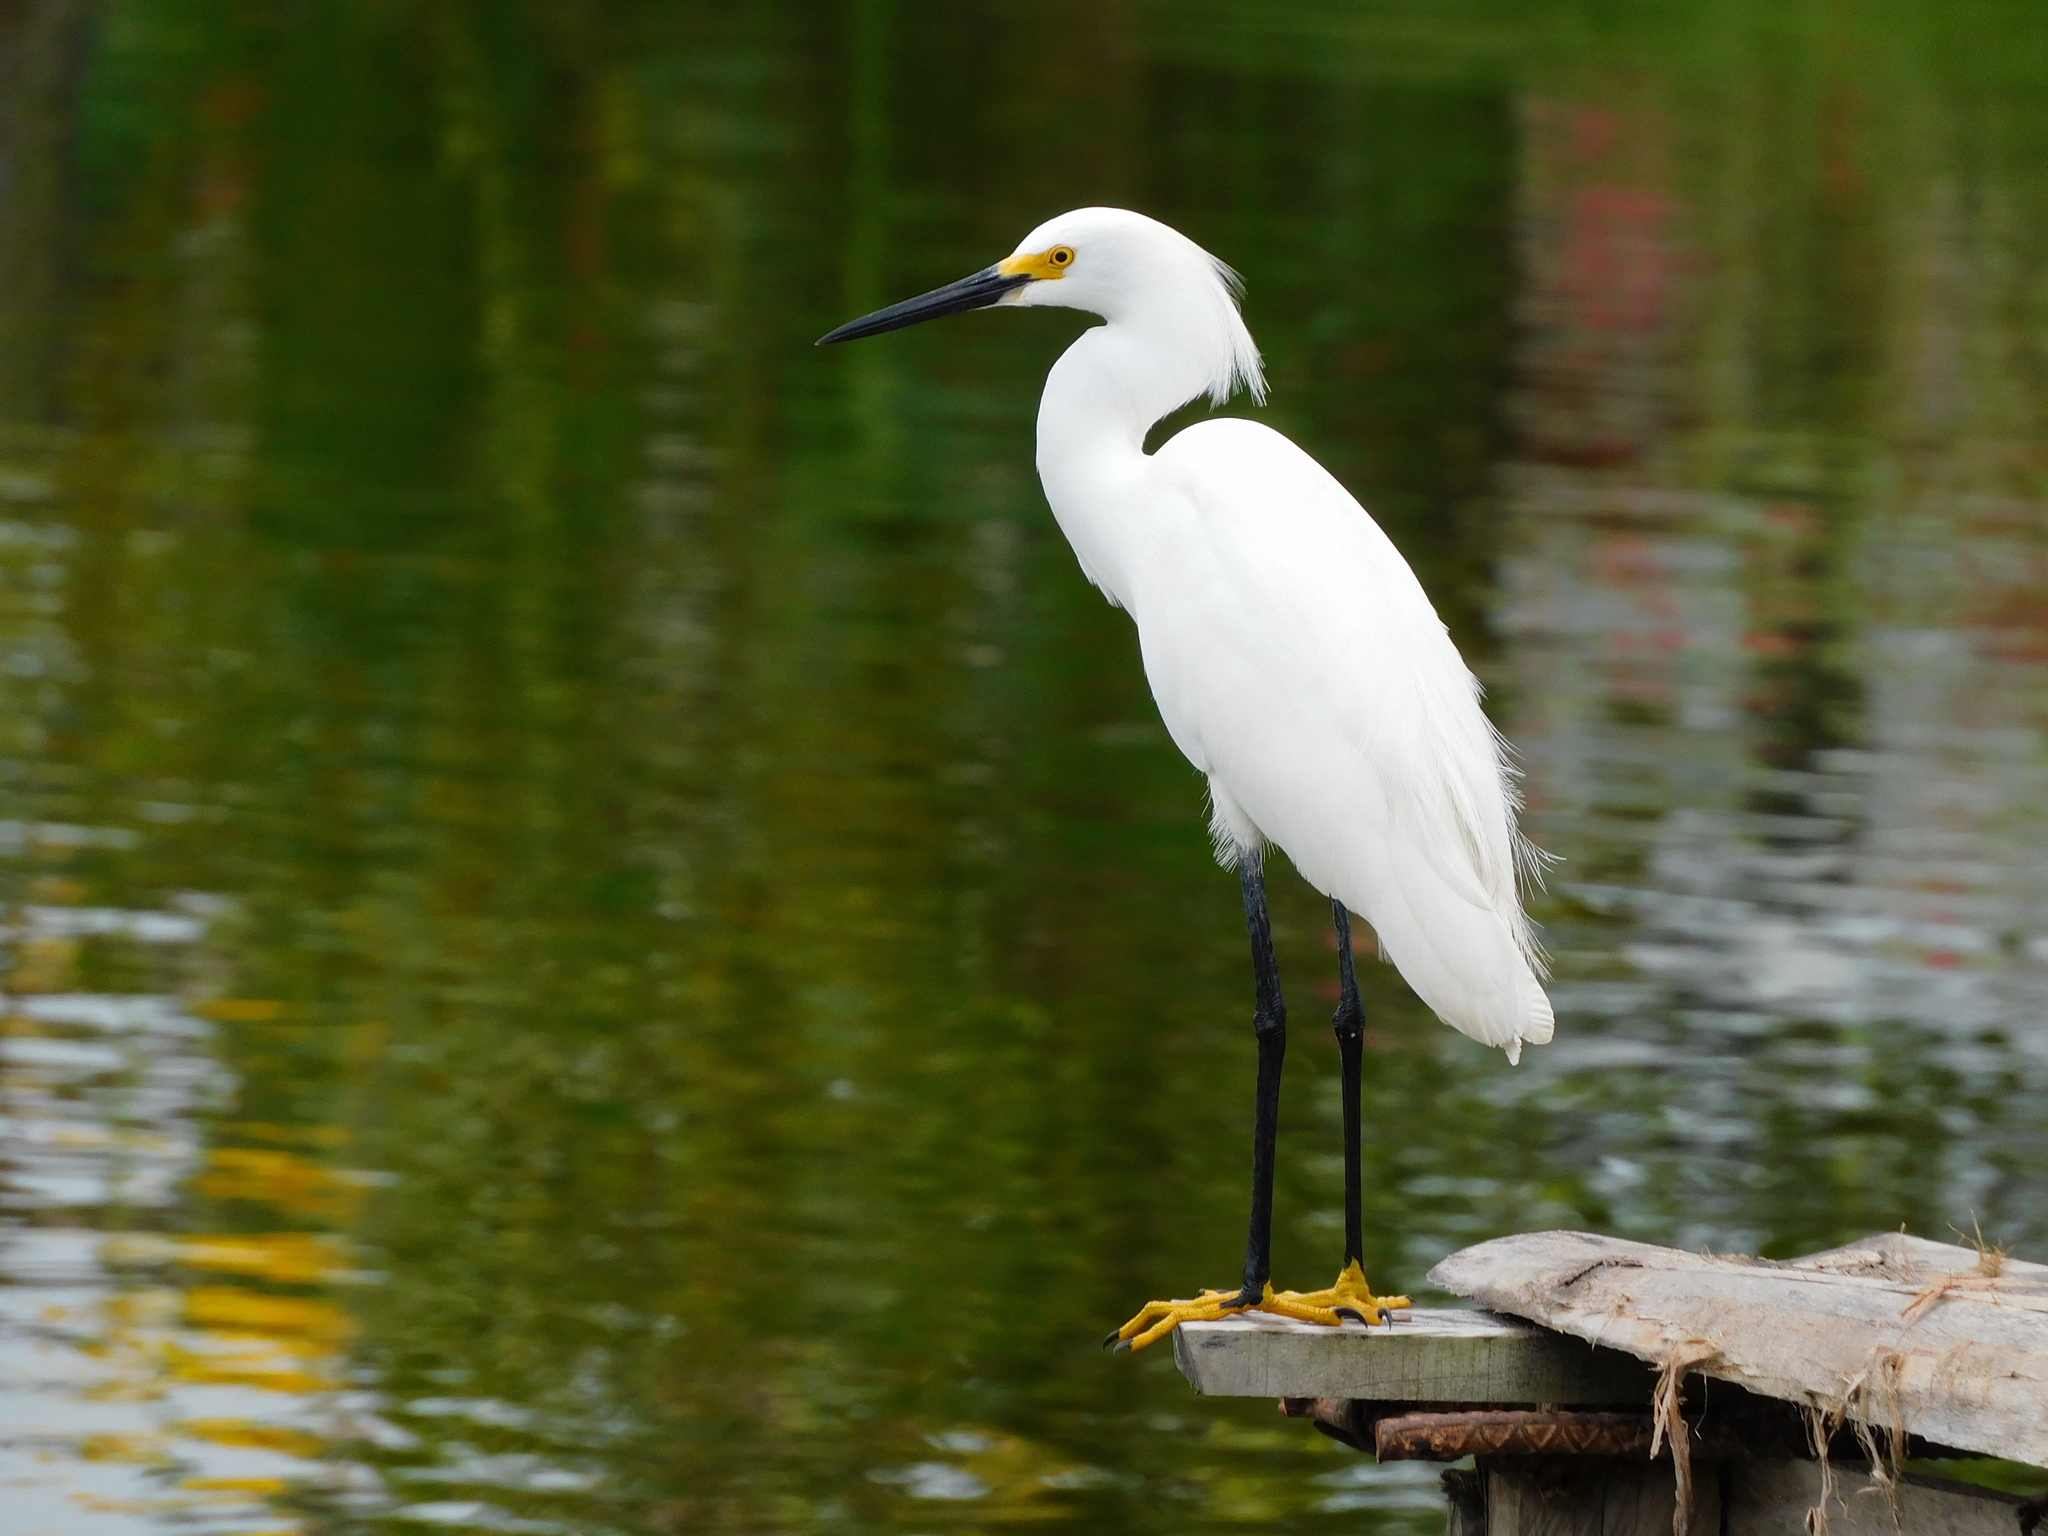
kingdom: Animalia
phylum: Chordata
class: Aves
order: Pelecaniformes
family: Ardeidae
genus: Egretta
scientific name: Egretta thula
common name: Snowy egret
